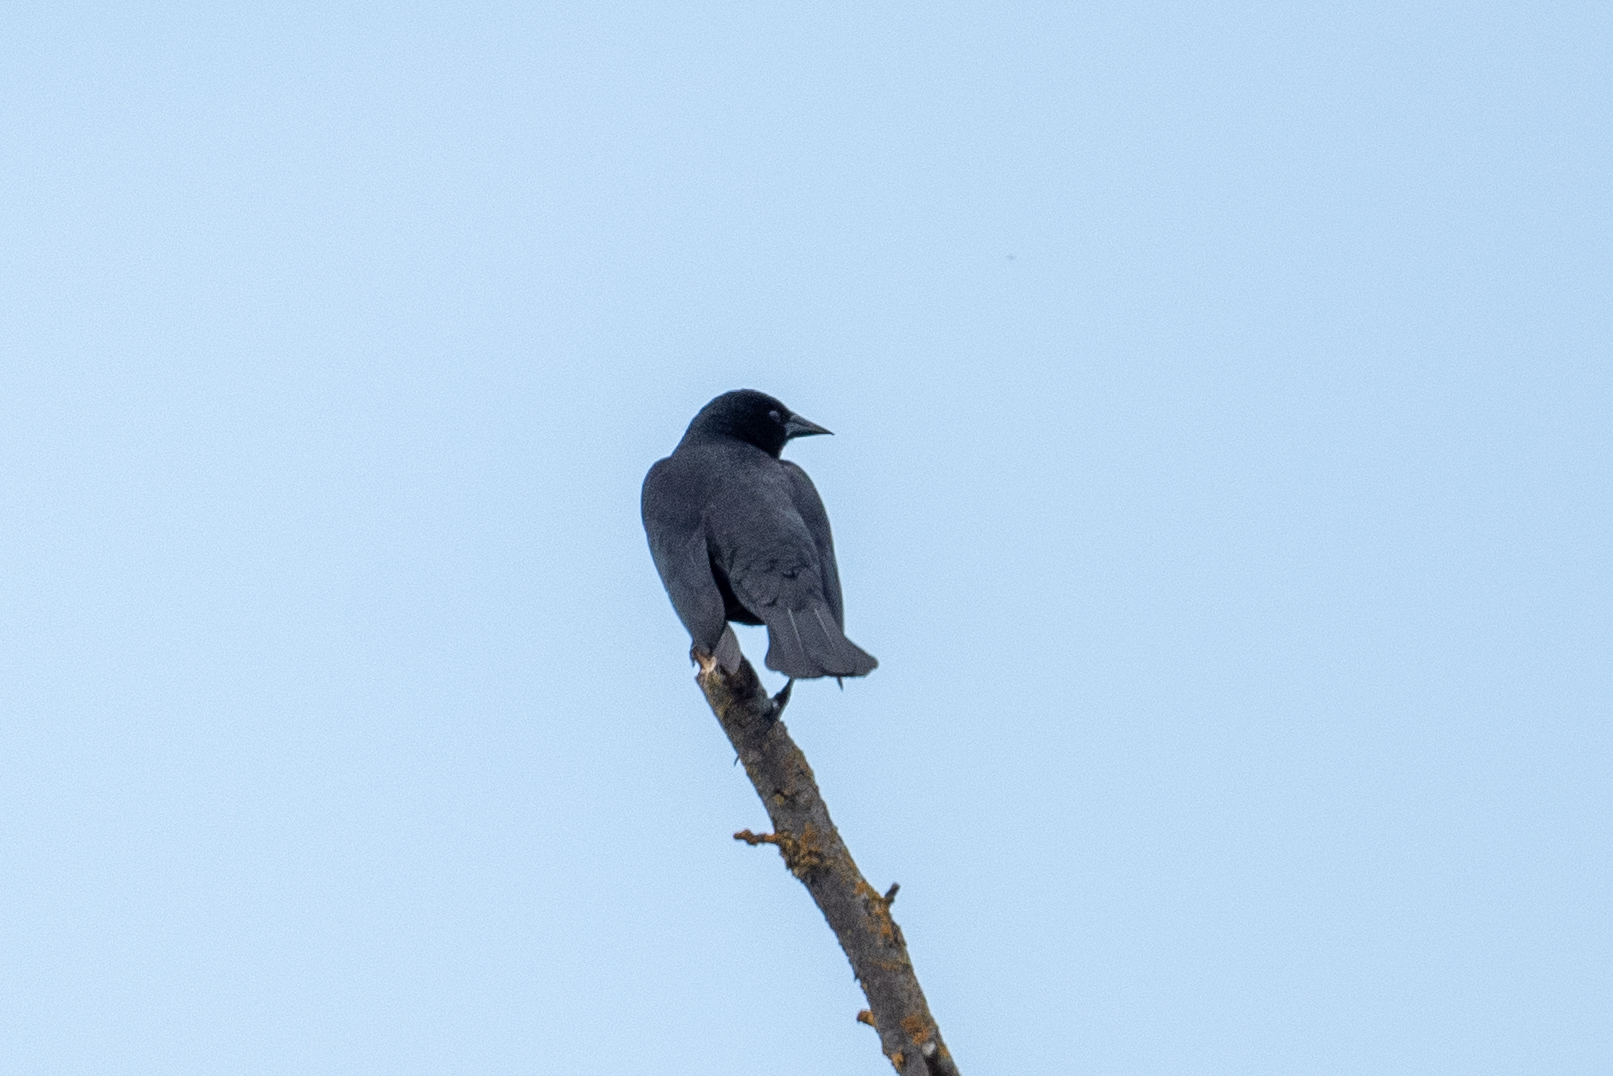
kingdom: Animalia
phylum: Chordata
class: Aves
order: Passeriformes
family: Corvidae
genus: Corvus
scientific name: Corvus brachyrhynchos
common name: American crow
